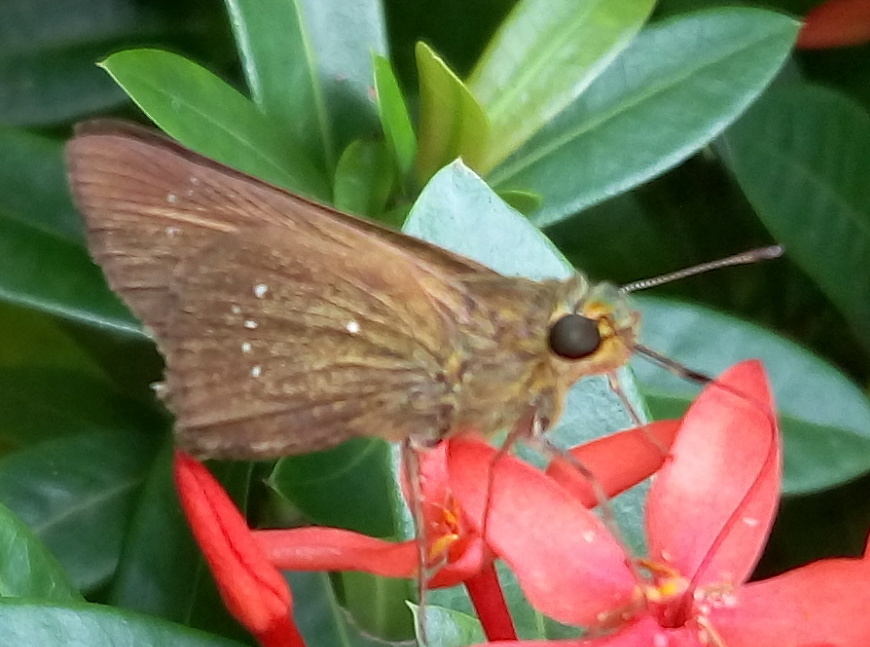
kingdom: Animalia
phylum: Arthropoda
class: Insecta
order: Lepidoptera
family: Hesperiidae
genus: Pelopidas
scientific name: Pelopidas mathias
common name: Black-branded swift
